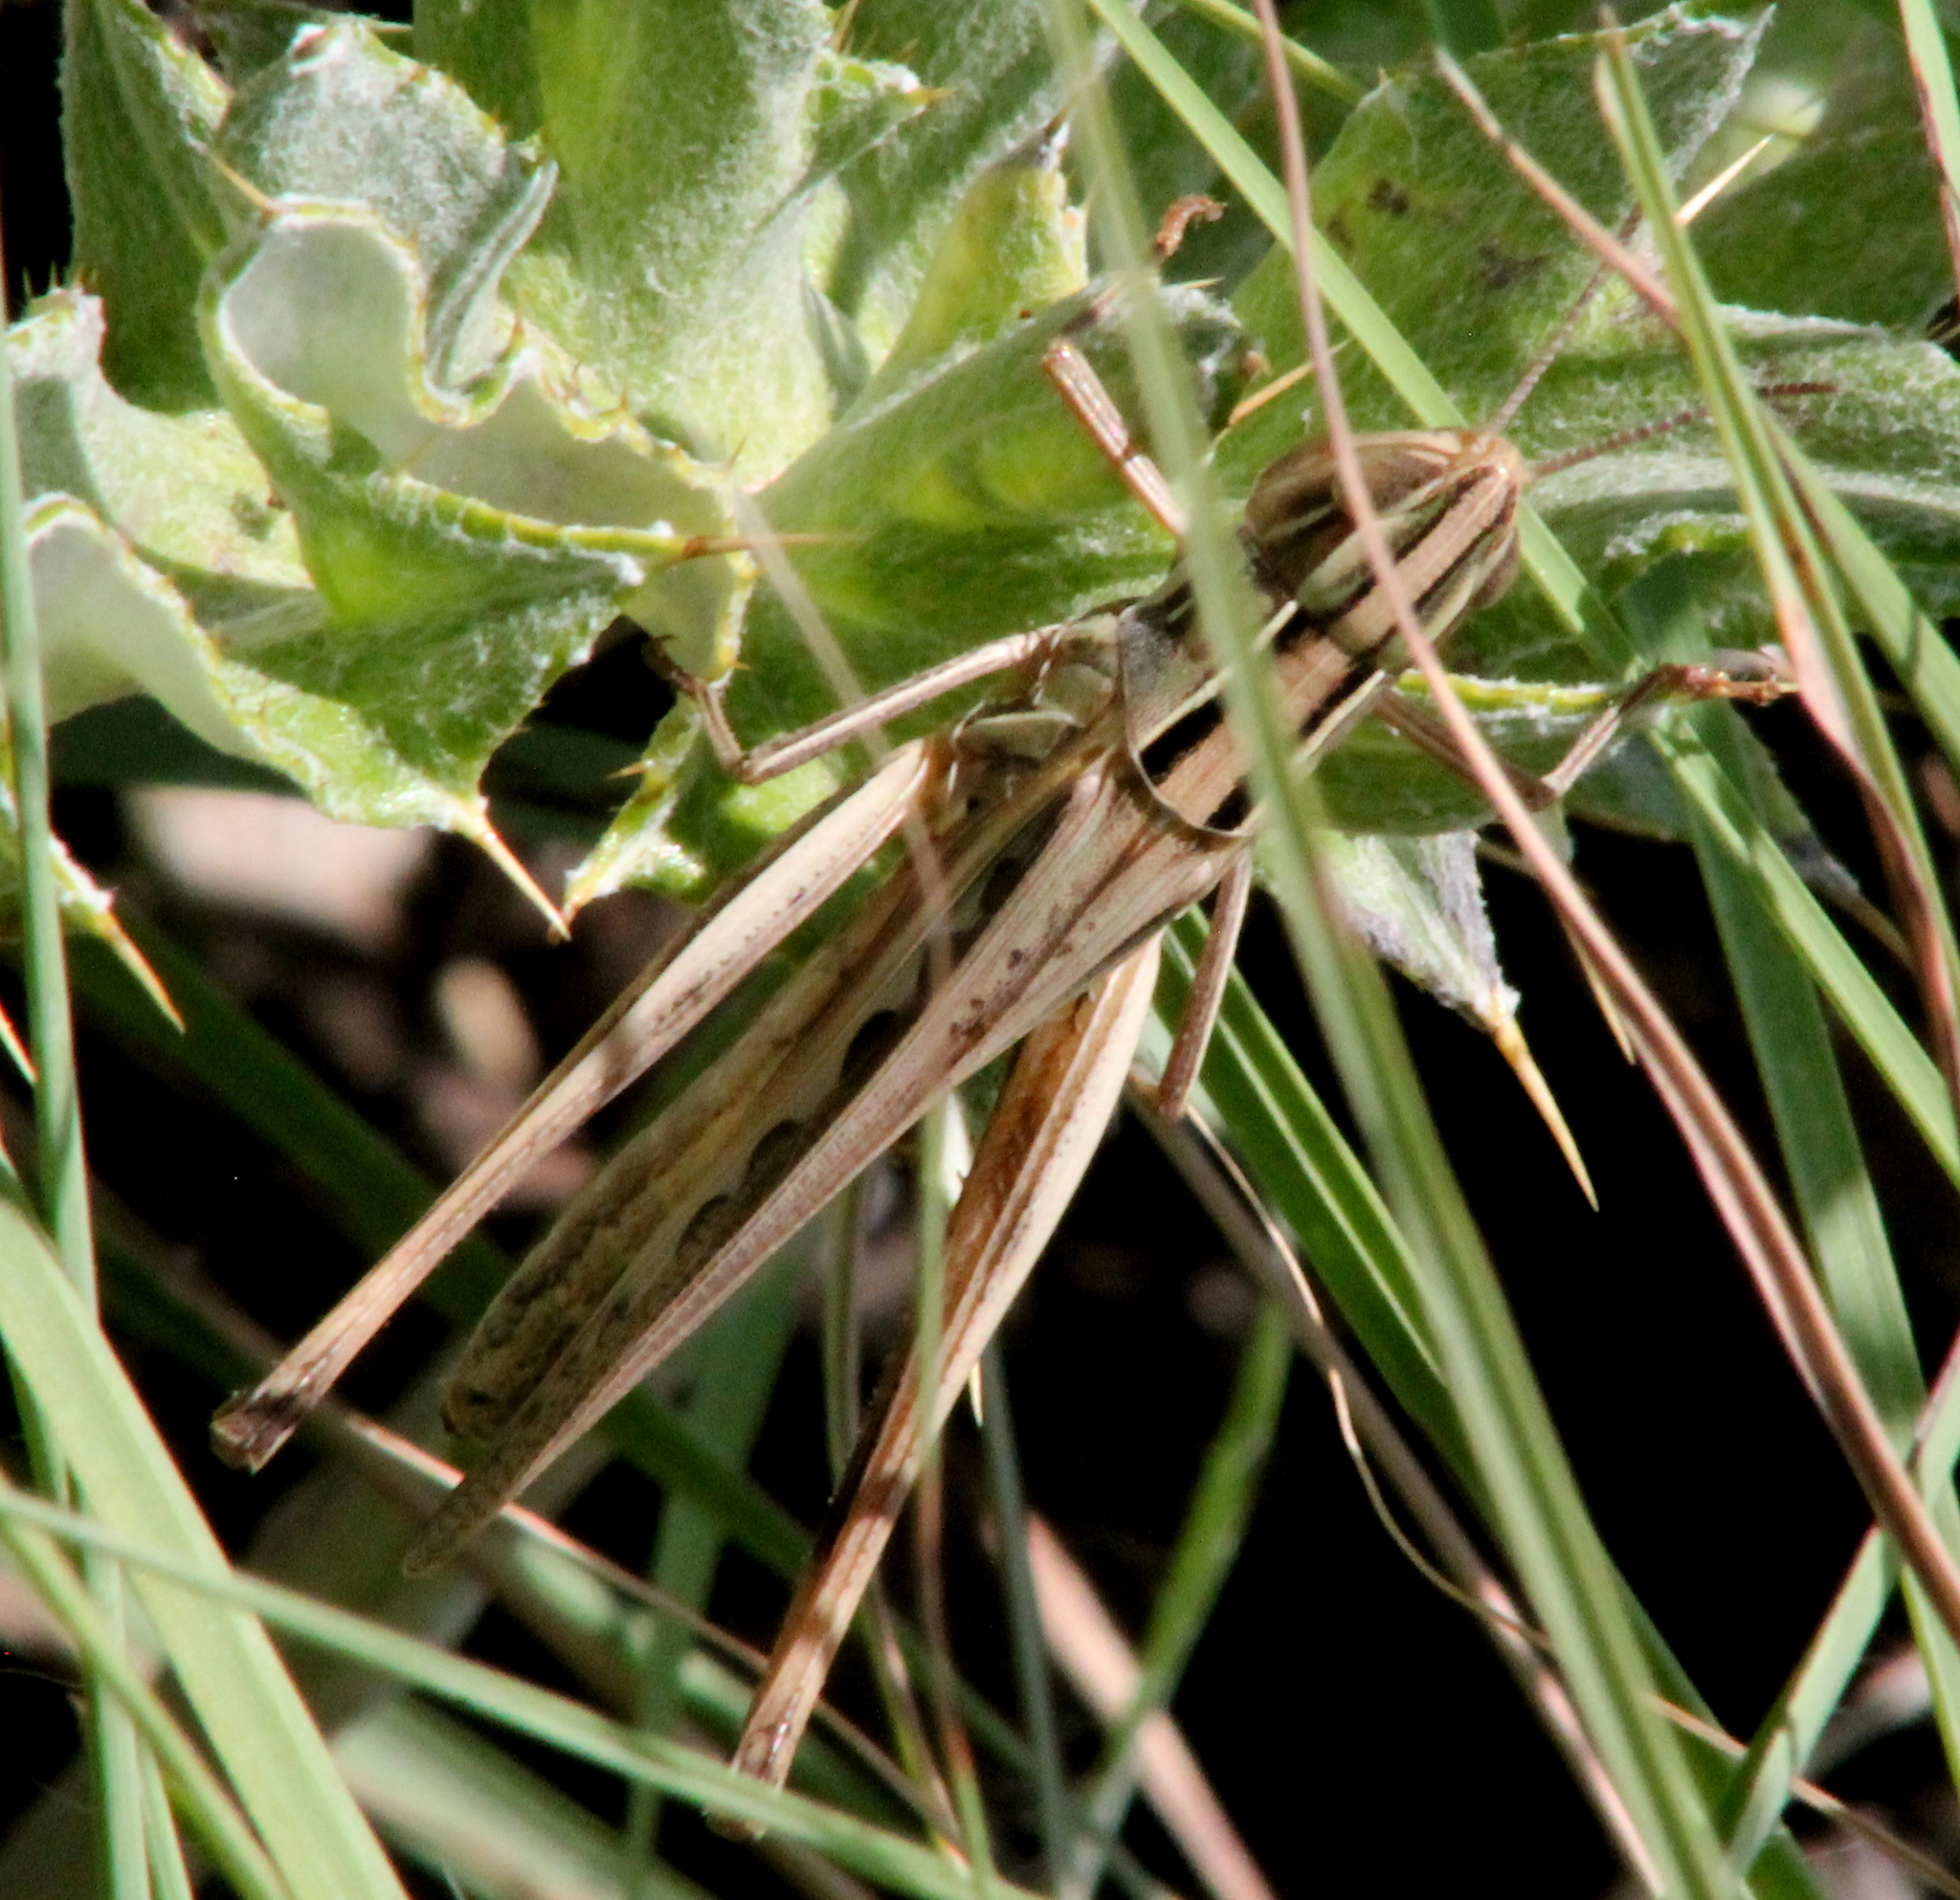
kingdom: Animalia
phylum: Arthropoda
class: Insecta
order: Orthoptera
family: Acrididae
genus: Syrbula
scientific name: Syrbula admirabilis
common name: Handsome grasshopper
